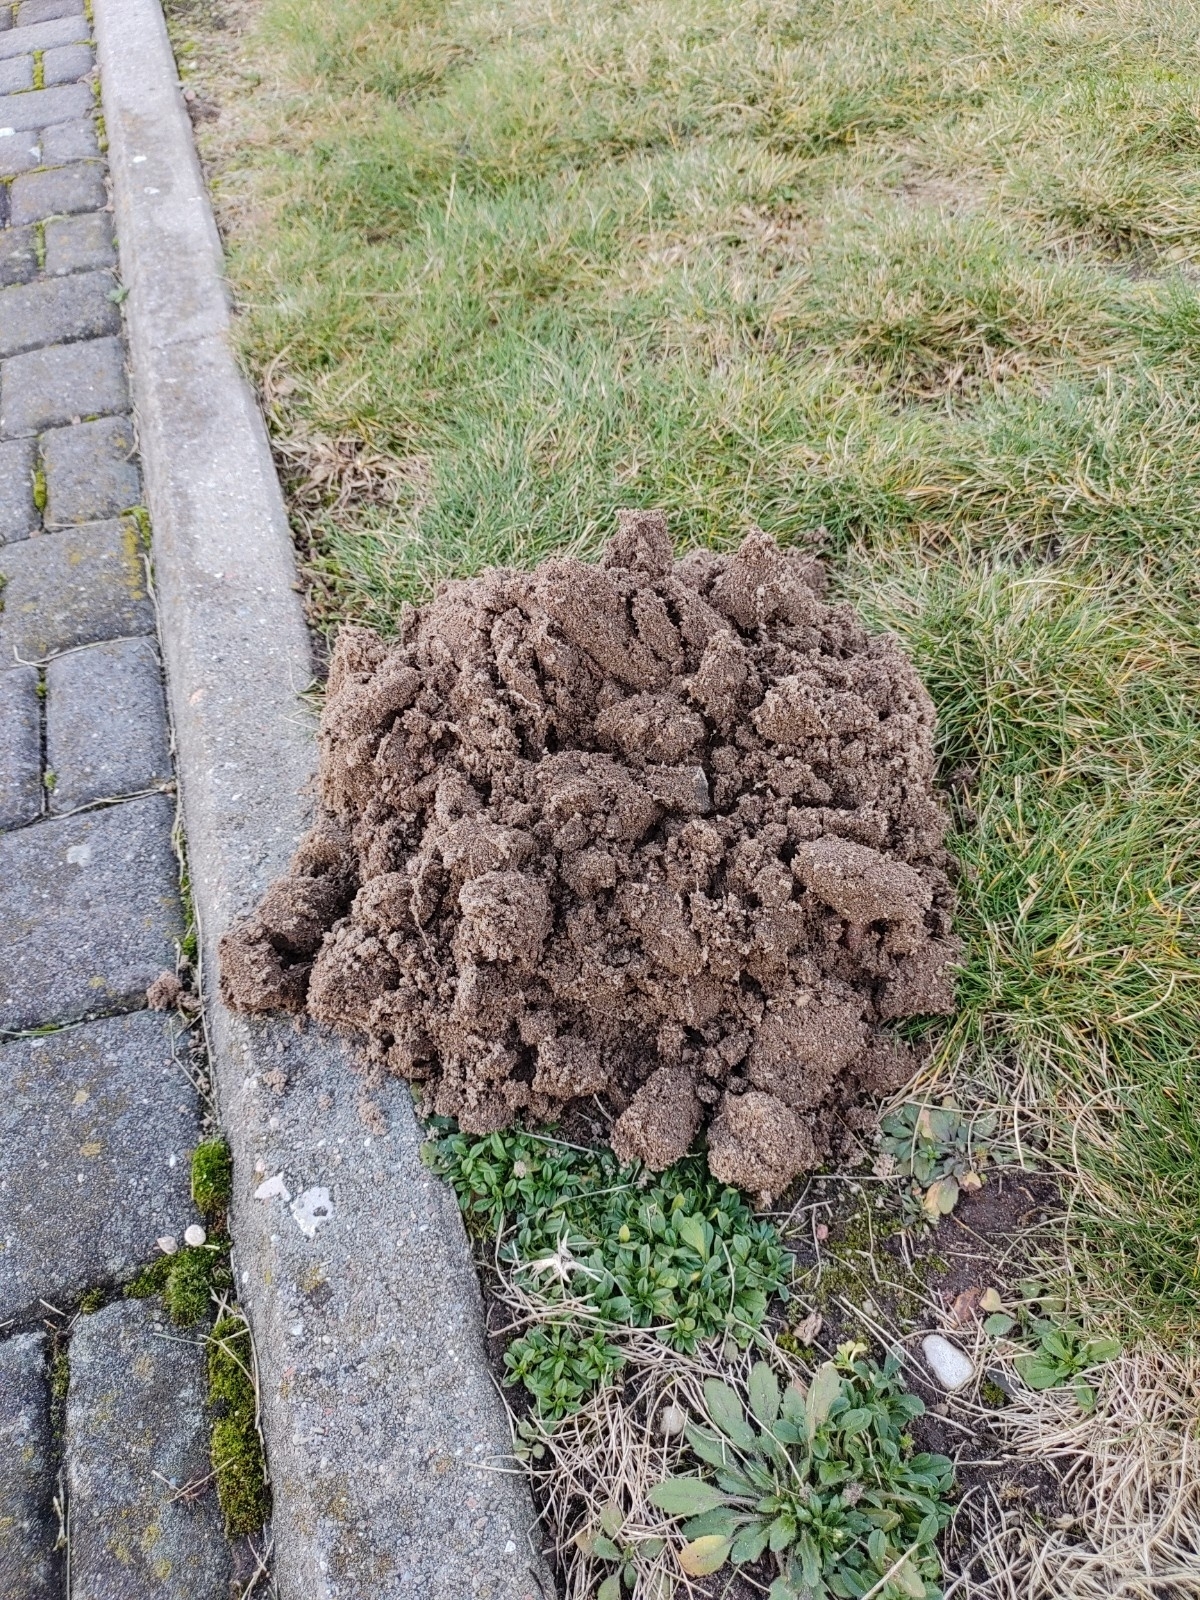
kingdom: Animalia
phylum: Chordata
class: Mammalia
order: Soricomorpha
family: Talpidae
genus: Talpa
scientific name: Talpa europaea
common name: European mole
